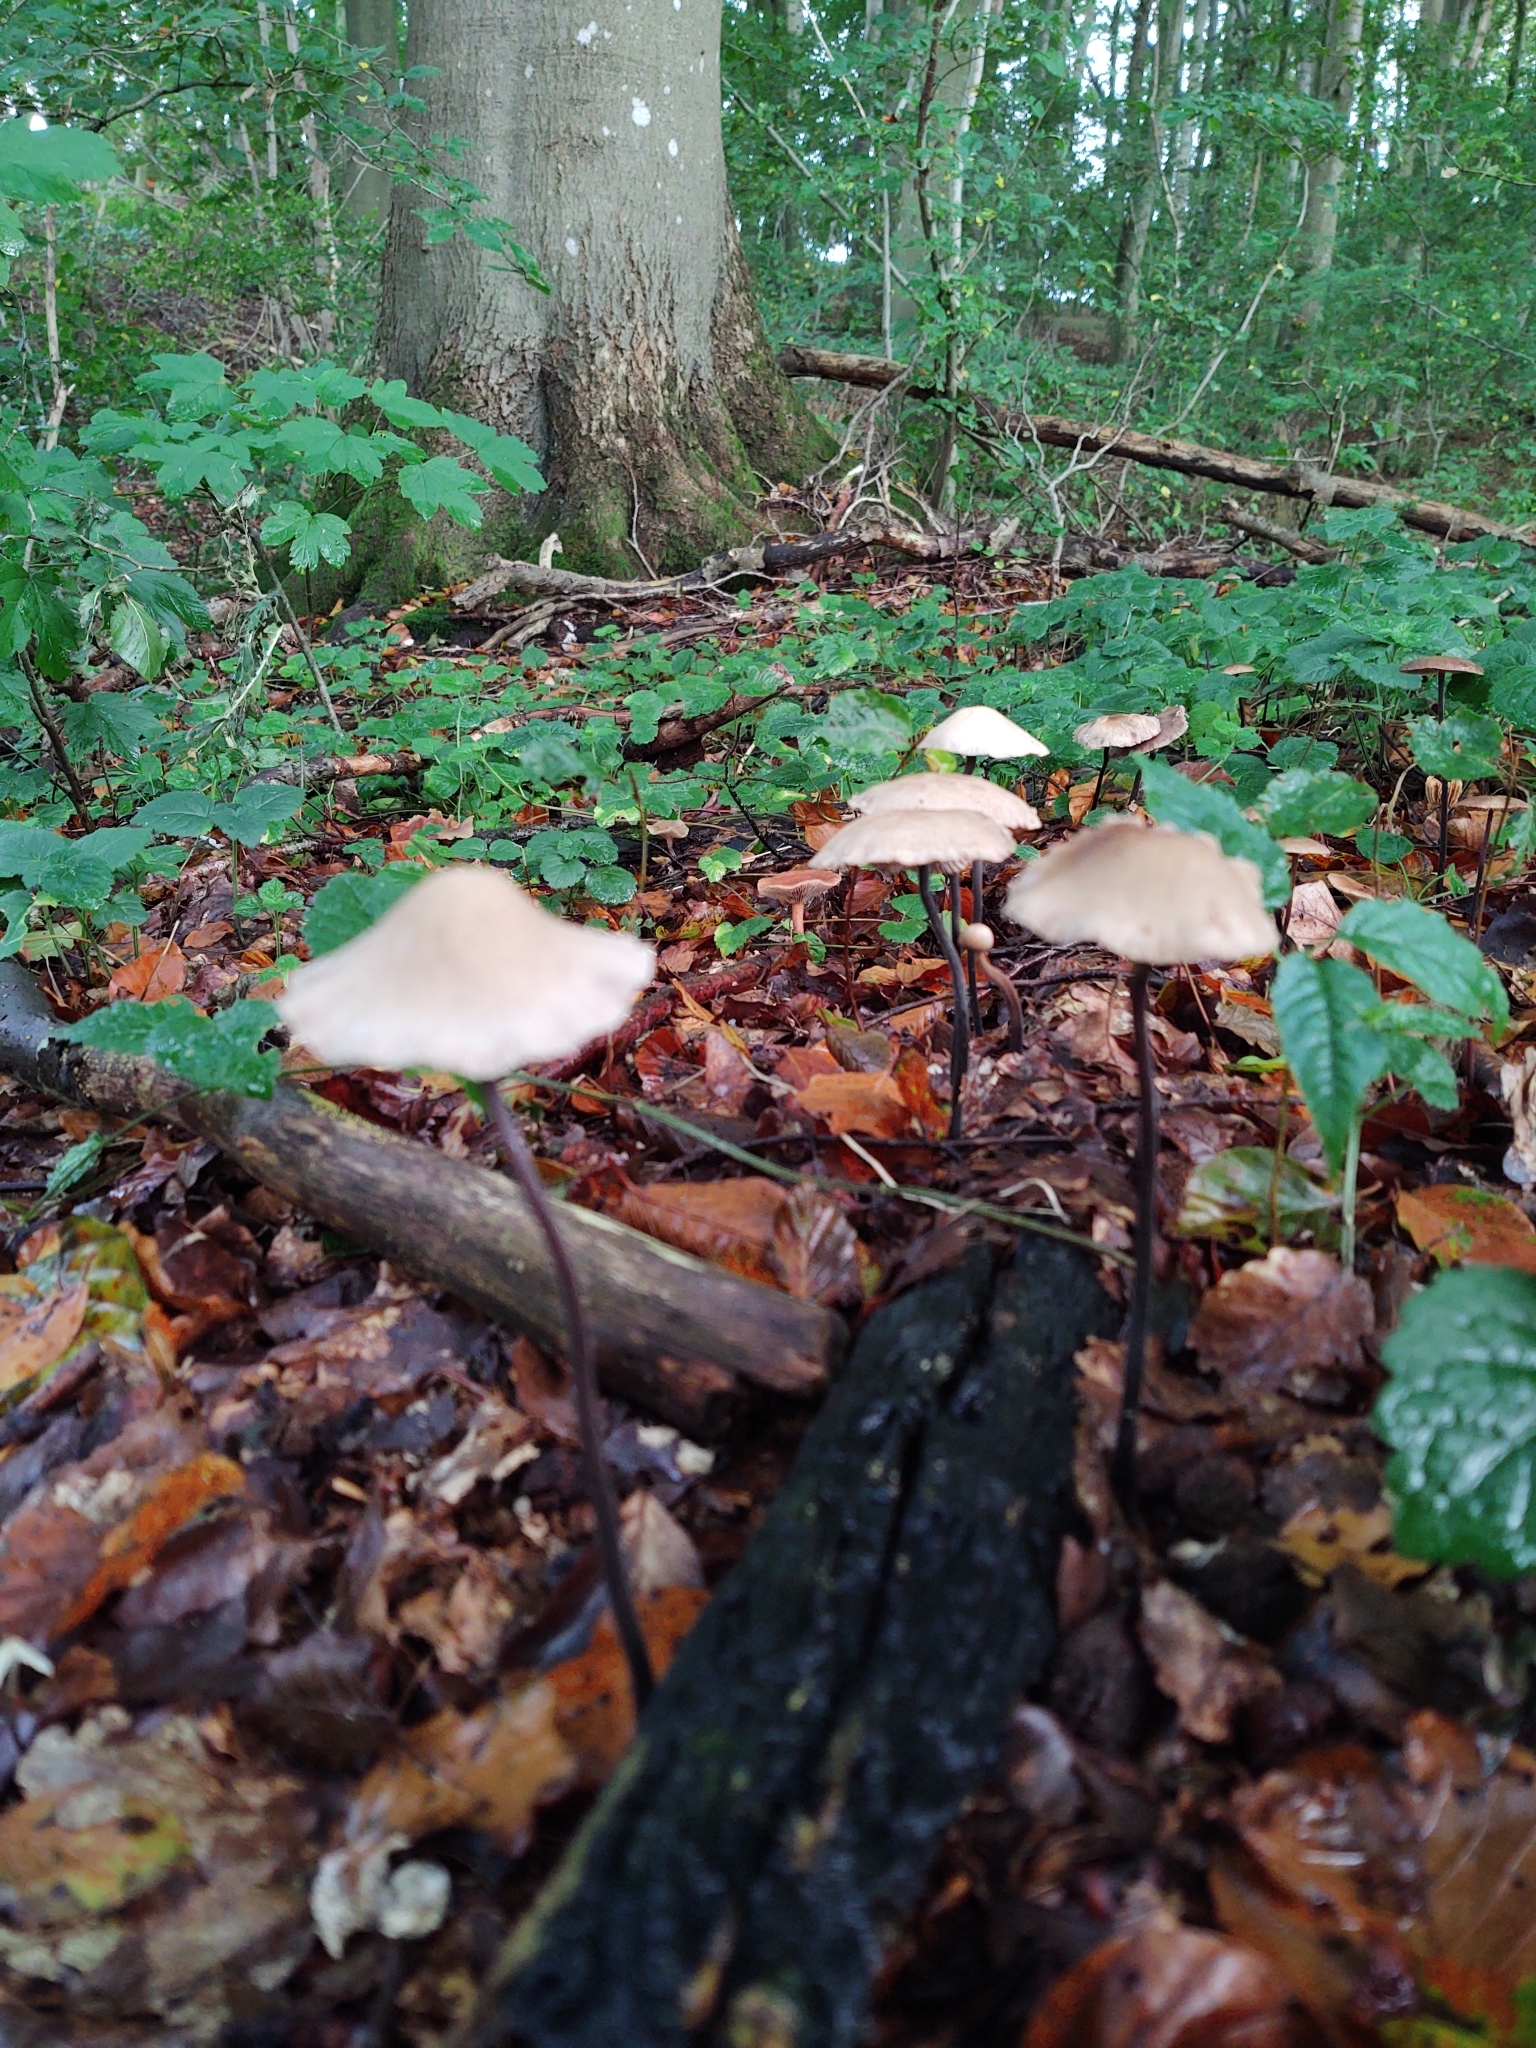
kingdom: Fungi
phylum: Basidiomycota
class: Agaricomycetes
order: Agaricales
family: Omphalotaceae
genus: Mycetinis
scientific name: Mycetinis alliaceus
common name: Garlic parachute
